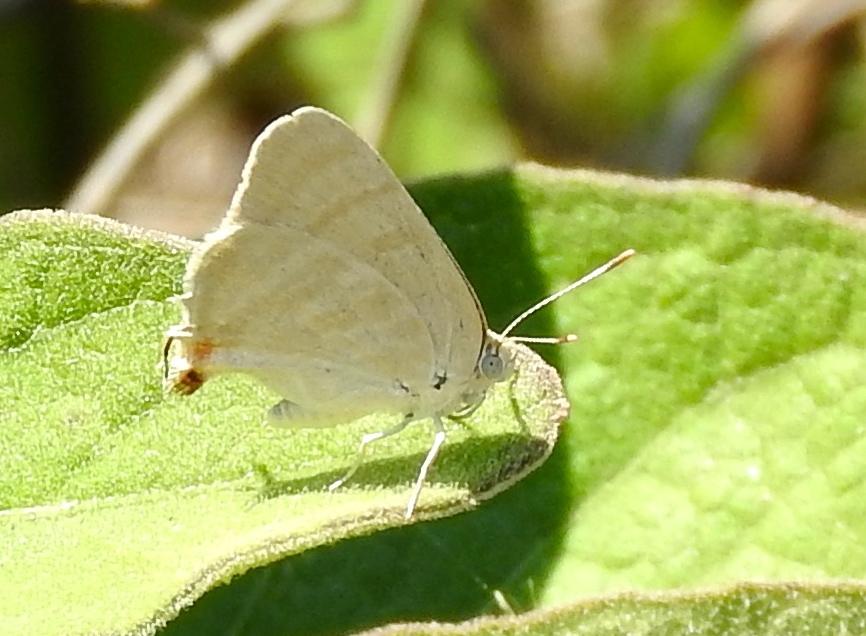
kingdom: Animalia
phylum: Arthropoda
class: Insecta
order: Lepidoptera
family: Lycaenidae
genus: Dolymorpha
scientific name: Dolymorpha jada
